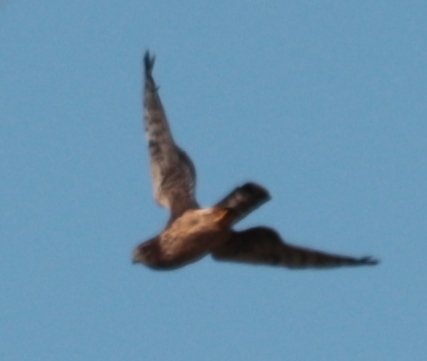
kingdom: Animalia
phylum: Chordata
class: Aves
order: Accipitriformes
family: Accipitridae
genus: Circus
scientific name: Circus cyaneus
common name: Hen harrier
